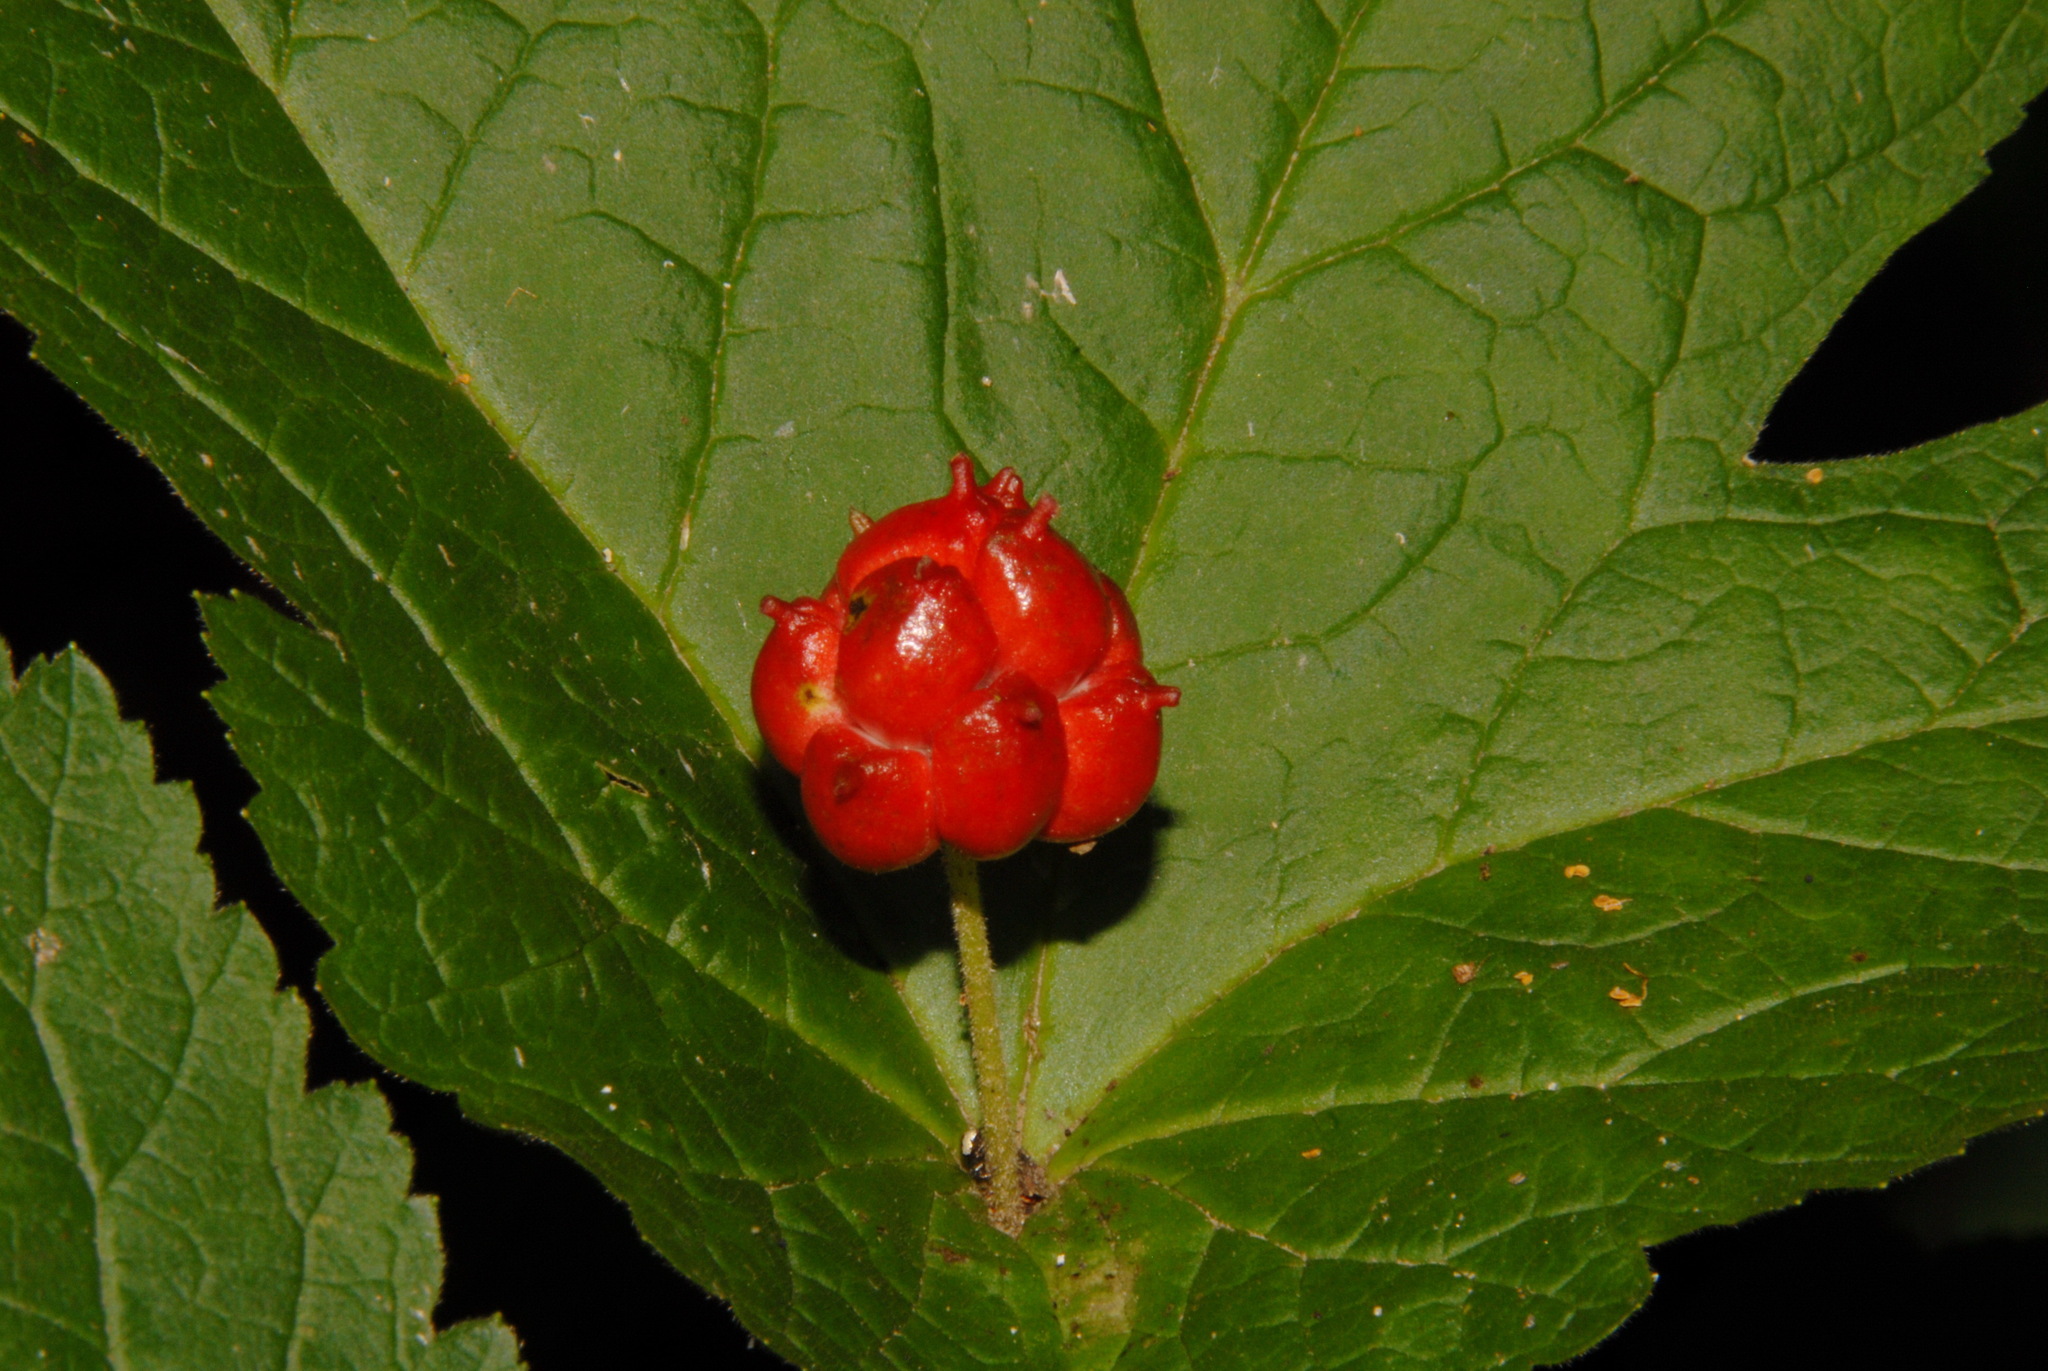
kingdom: Plantae
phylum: Tracheophyta
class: Magnoliopsida
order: Ranunculales
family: Ranunculaceae
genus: Hydrastis
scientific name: Hydrastis canadensis
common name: Goldenseal
